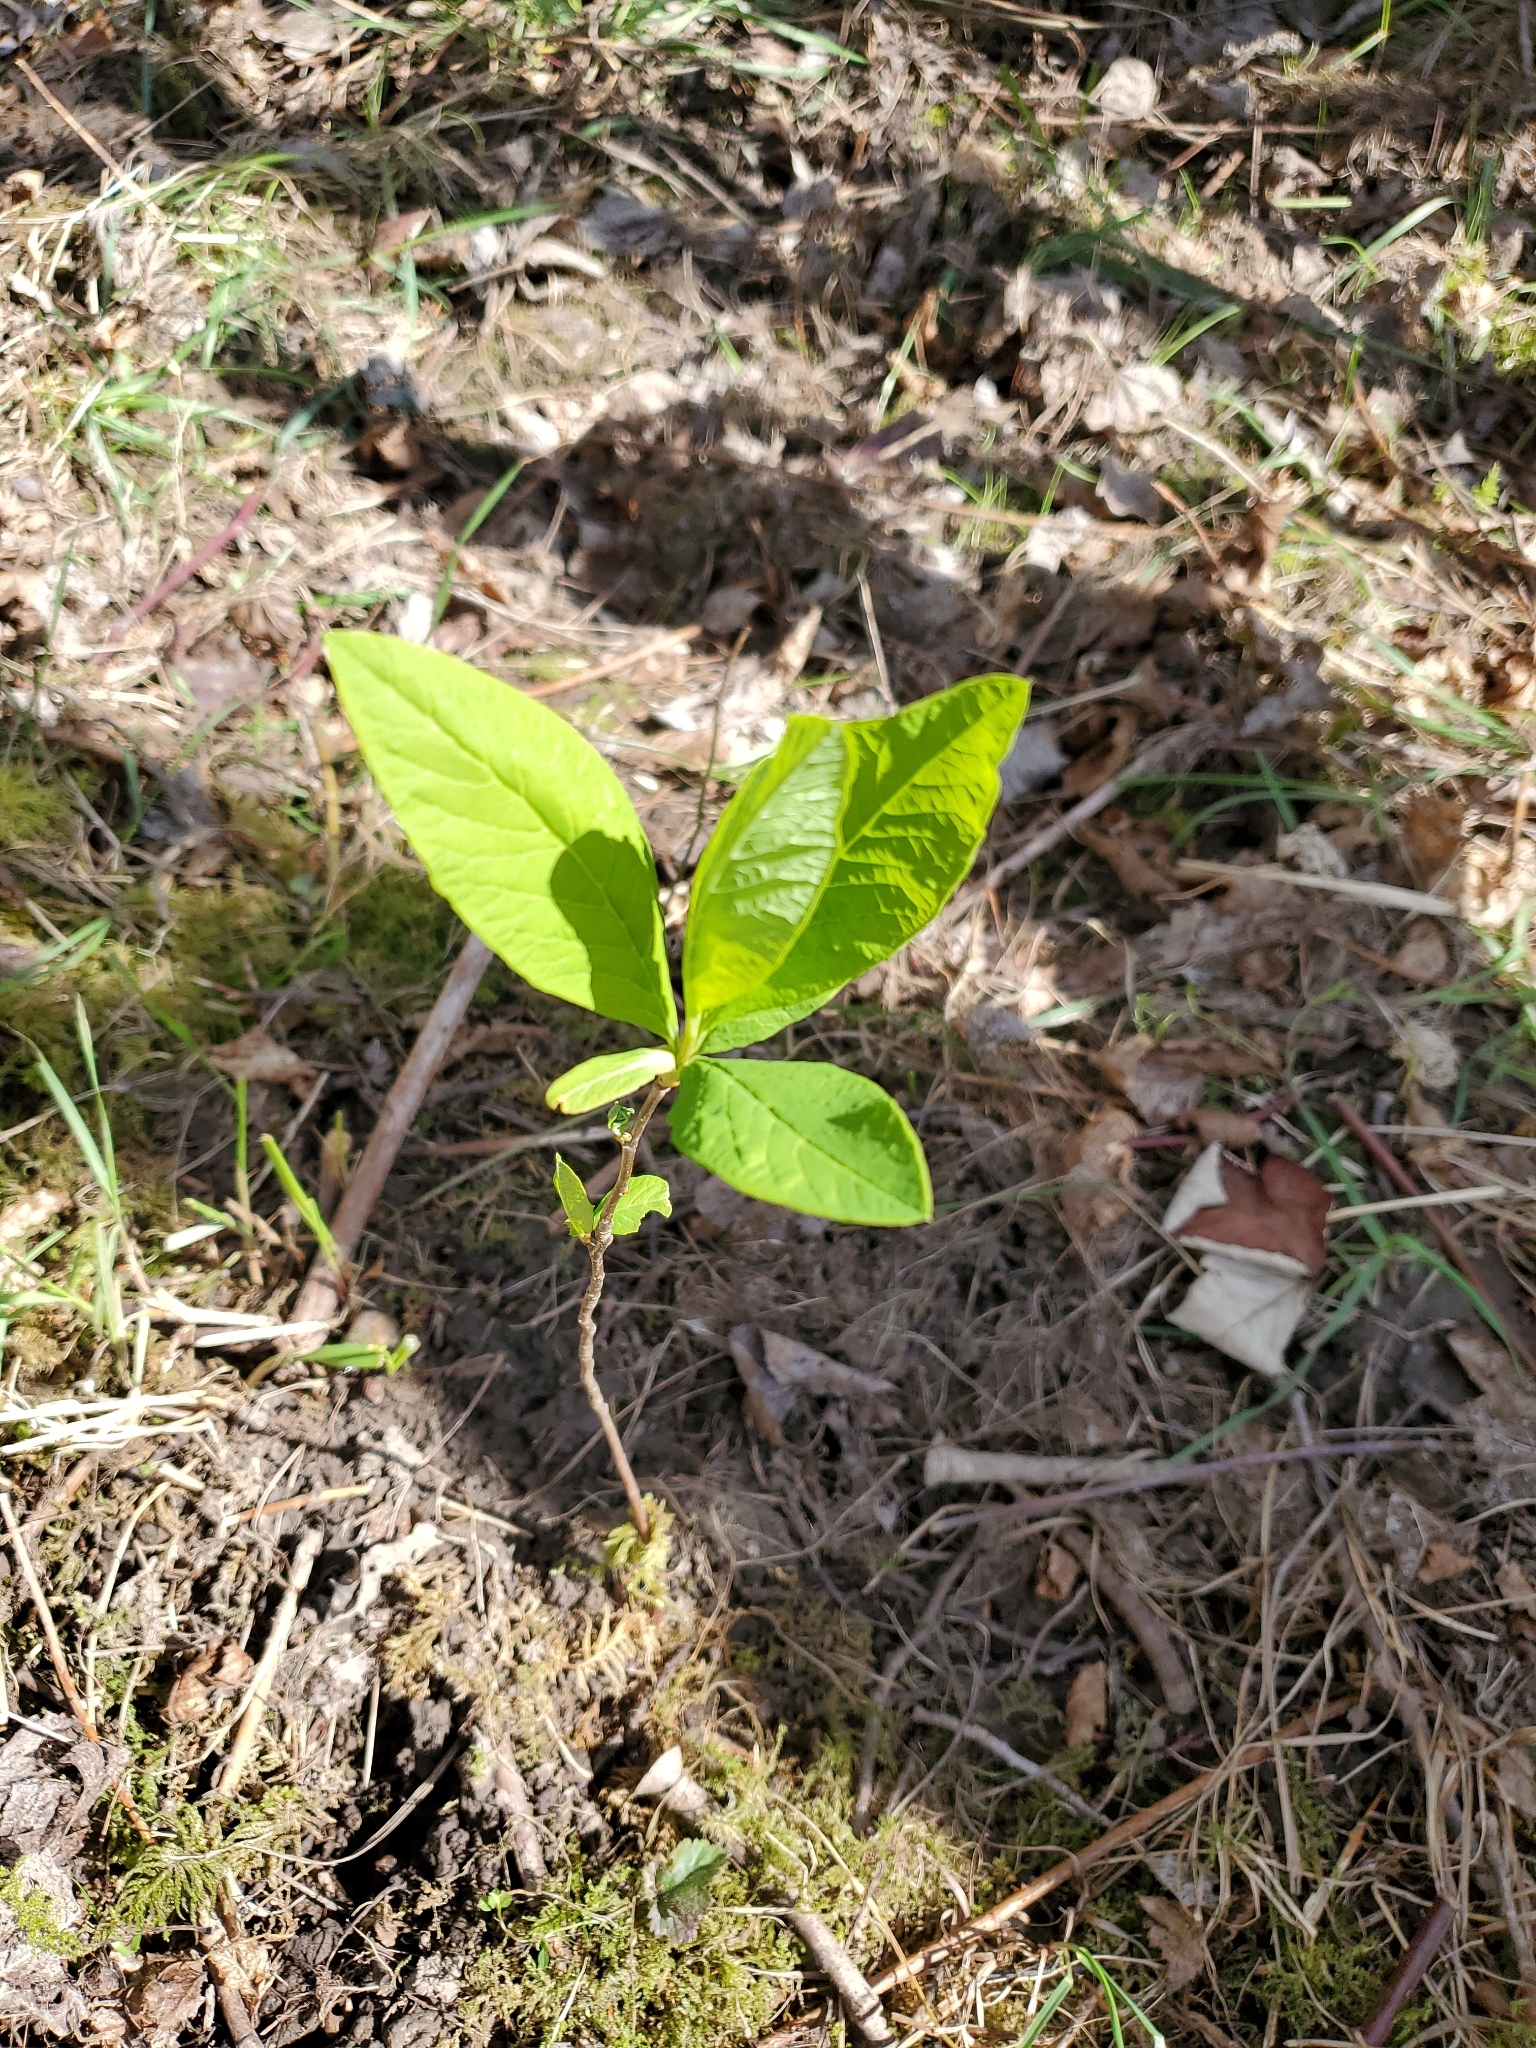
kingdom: Plantae
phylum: Tracheophyta
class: Magnoliopsida
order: Rosales
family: Rosaceae
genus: Oemleria
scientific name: Oemleria cerasiformis
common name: Osoberry
